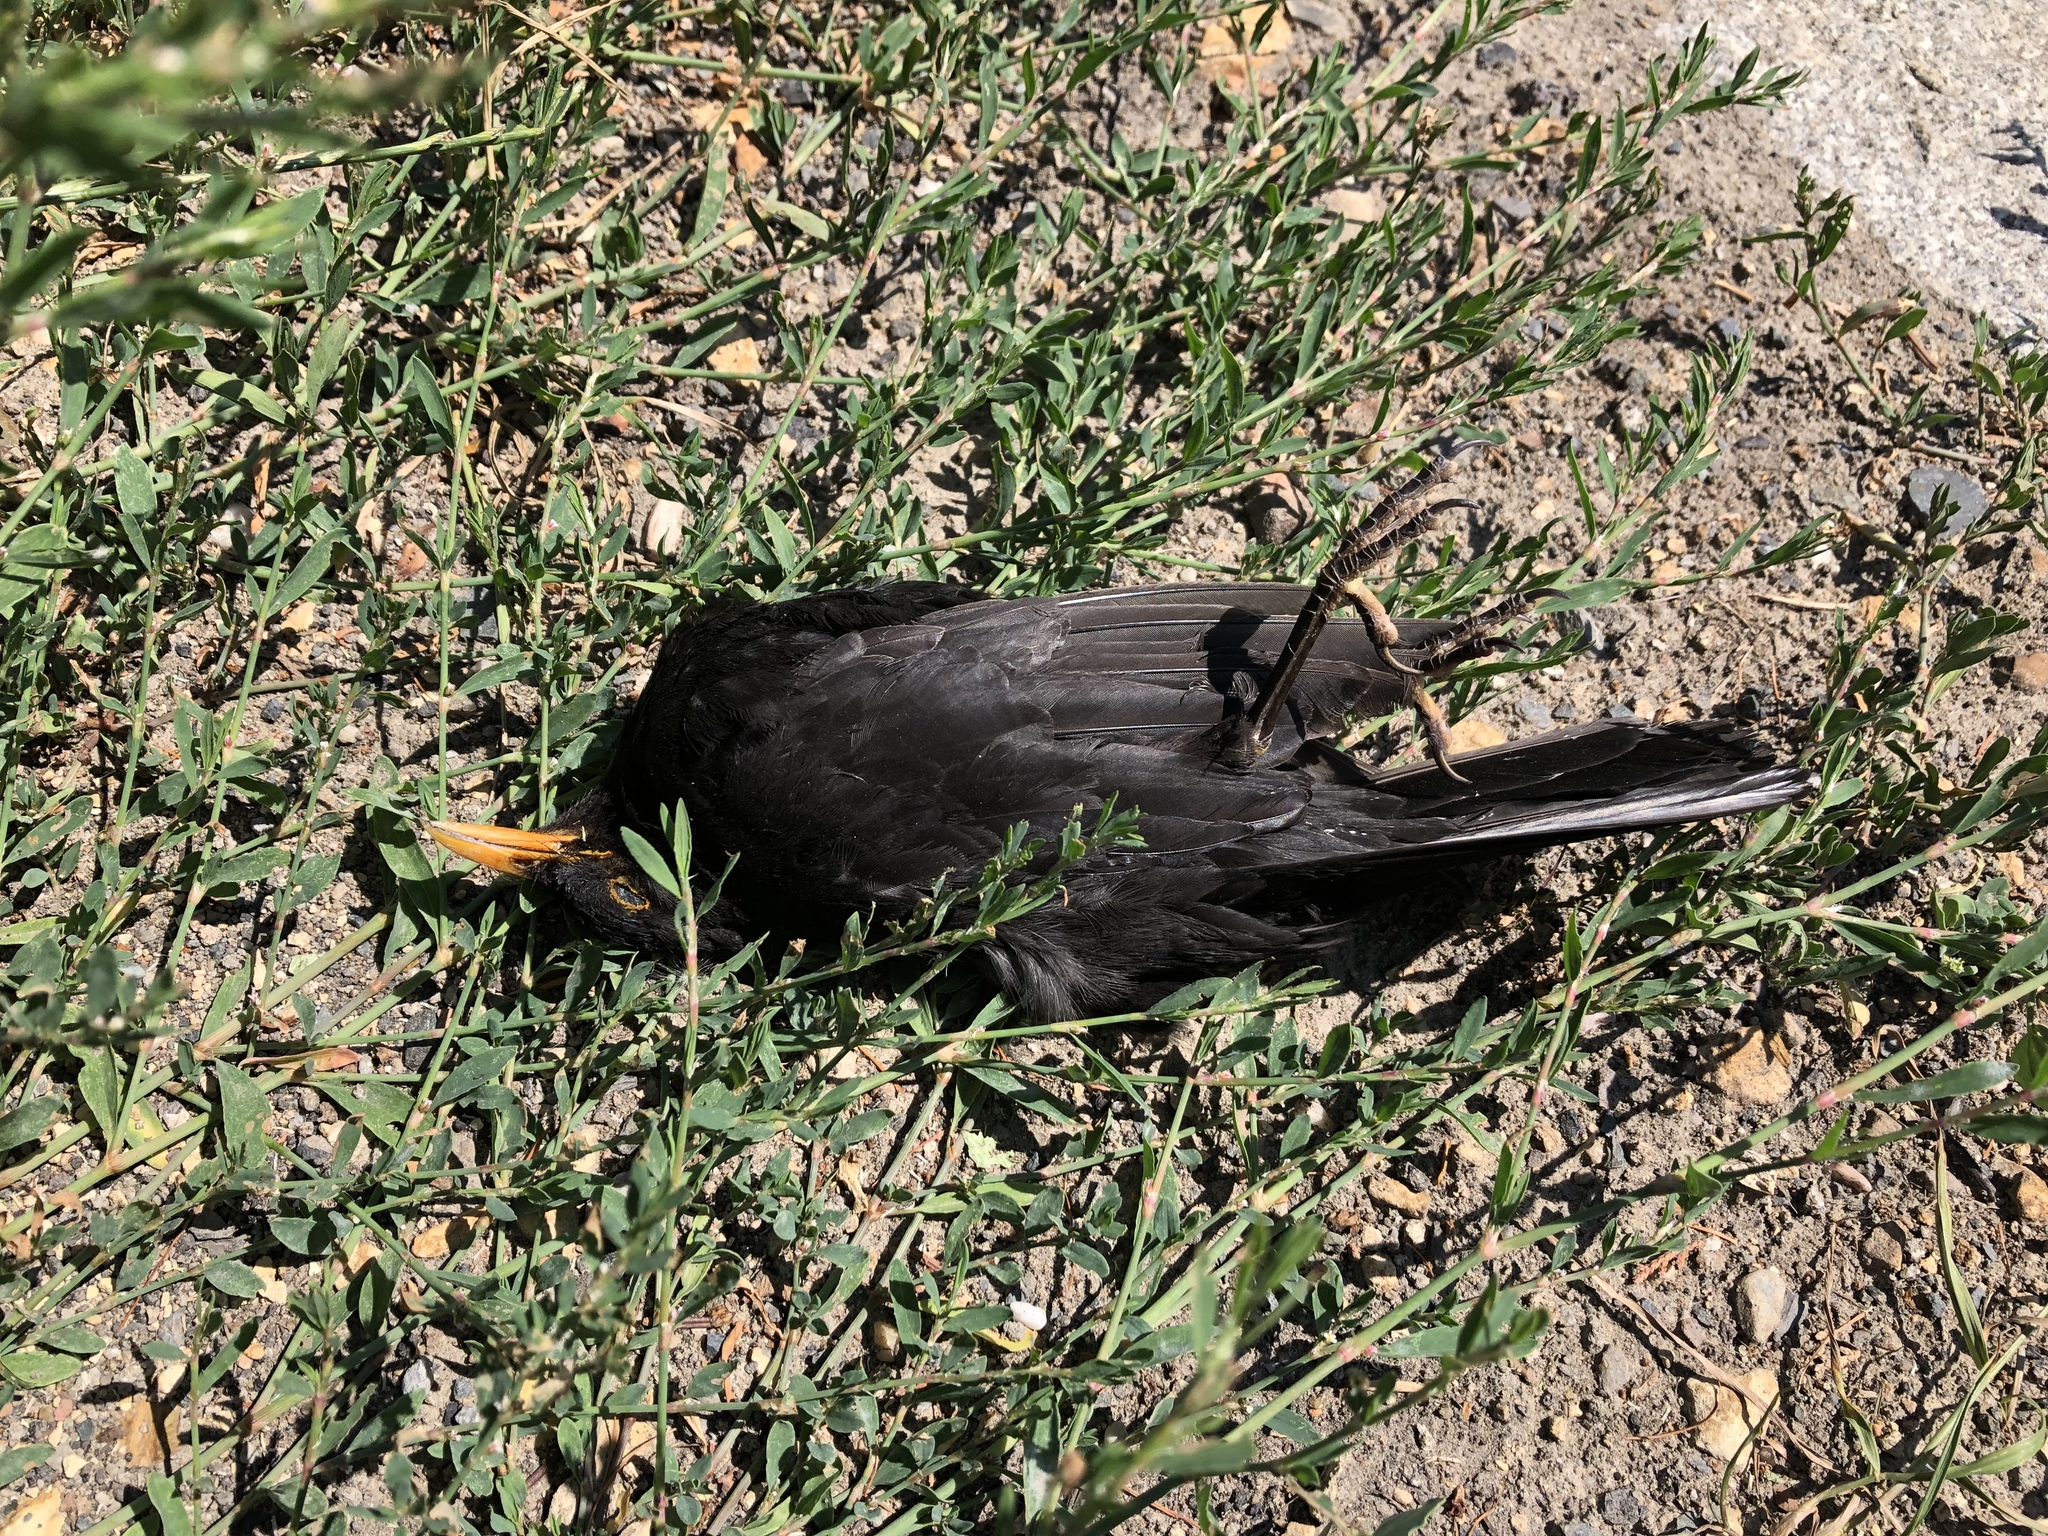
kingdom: Animalia
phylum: Chordata
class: Aves
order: Passeriformes
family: Turdidae
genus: Turdus
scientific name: Turdus merula
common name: Common blackbird
